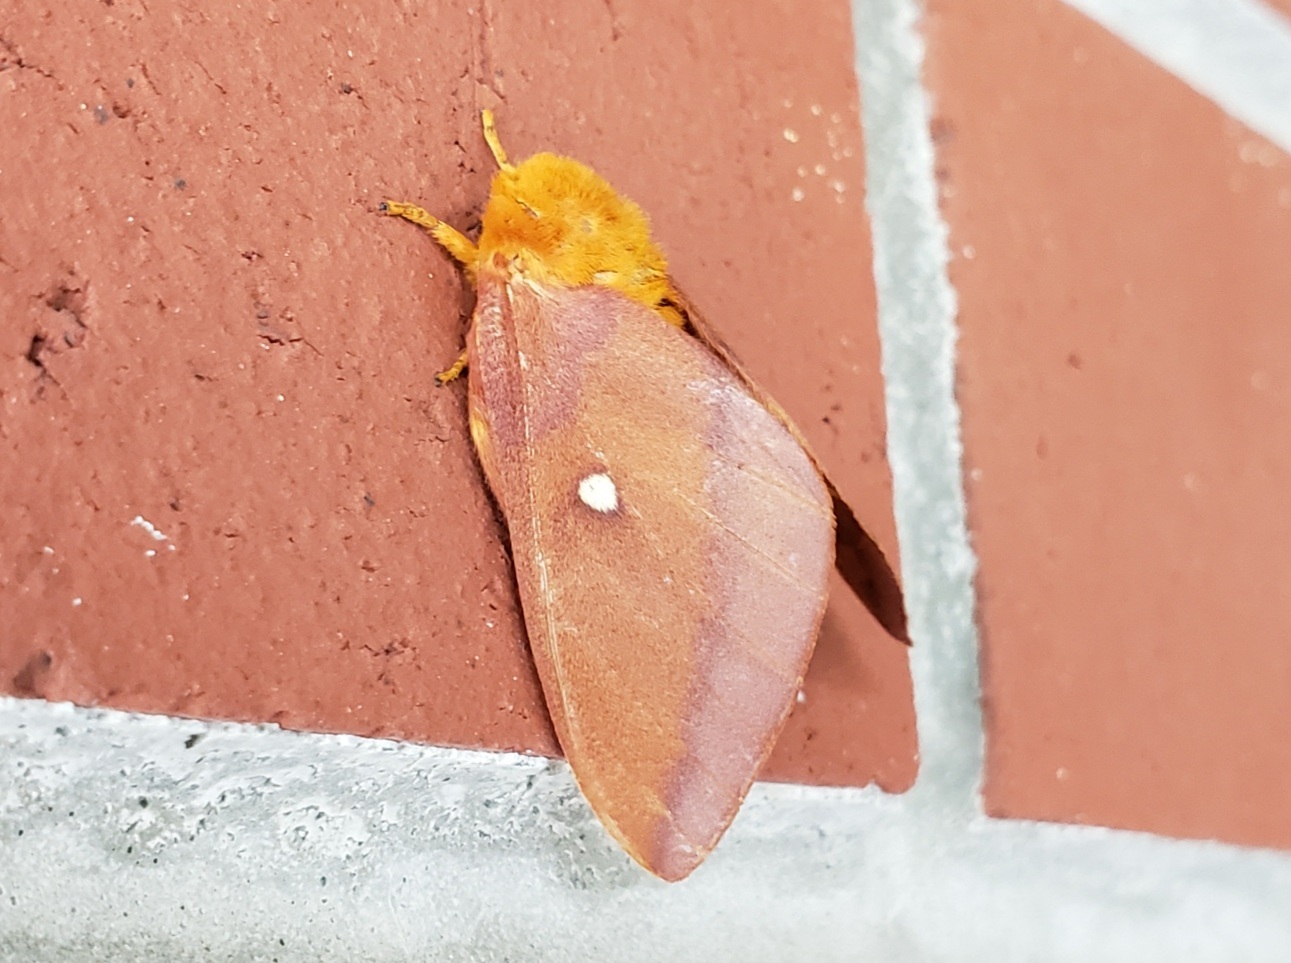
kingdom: Animalia
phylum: Arthropoda
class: Insecta
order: Lepidoptera
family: Saturniidae
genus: Anisota
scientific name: Anisota virginiensis
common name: Pink striped oakworm moth
